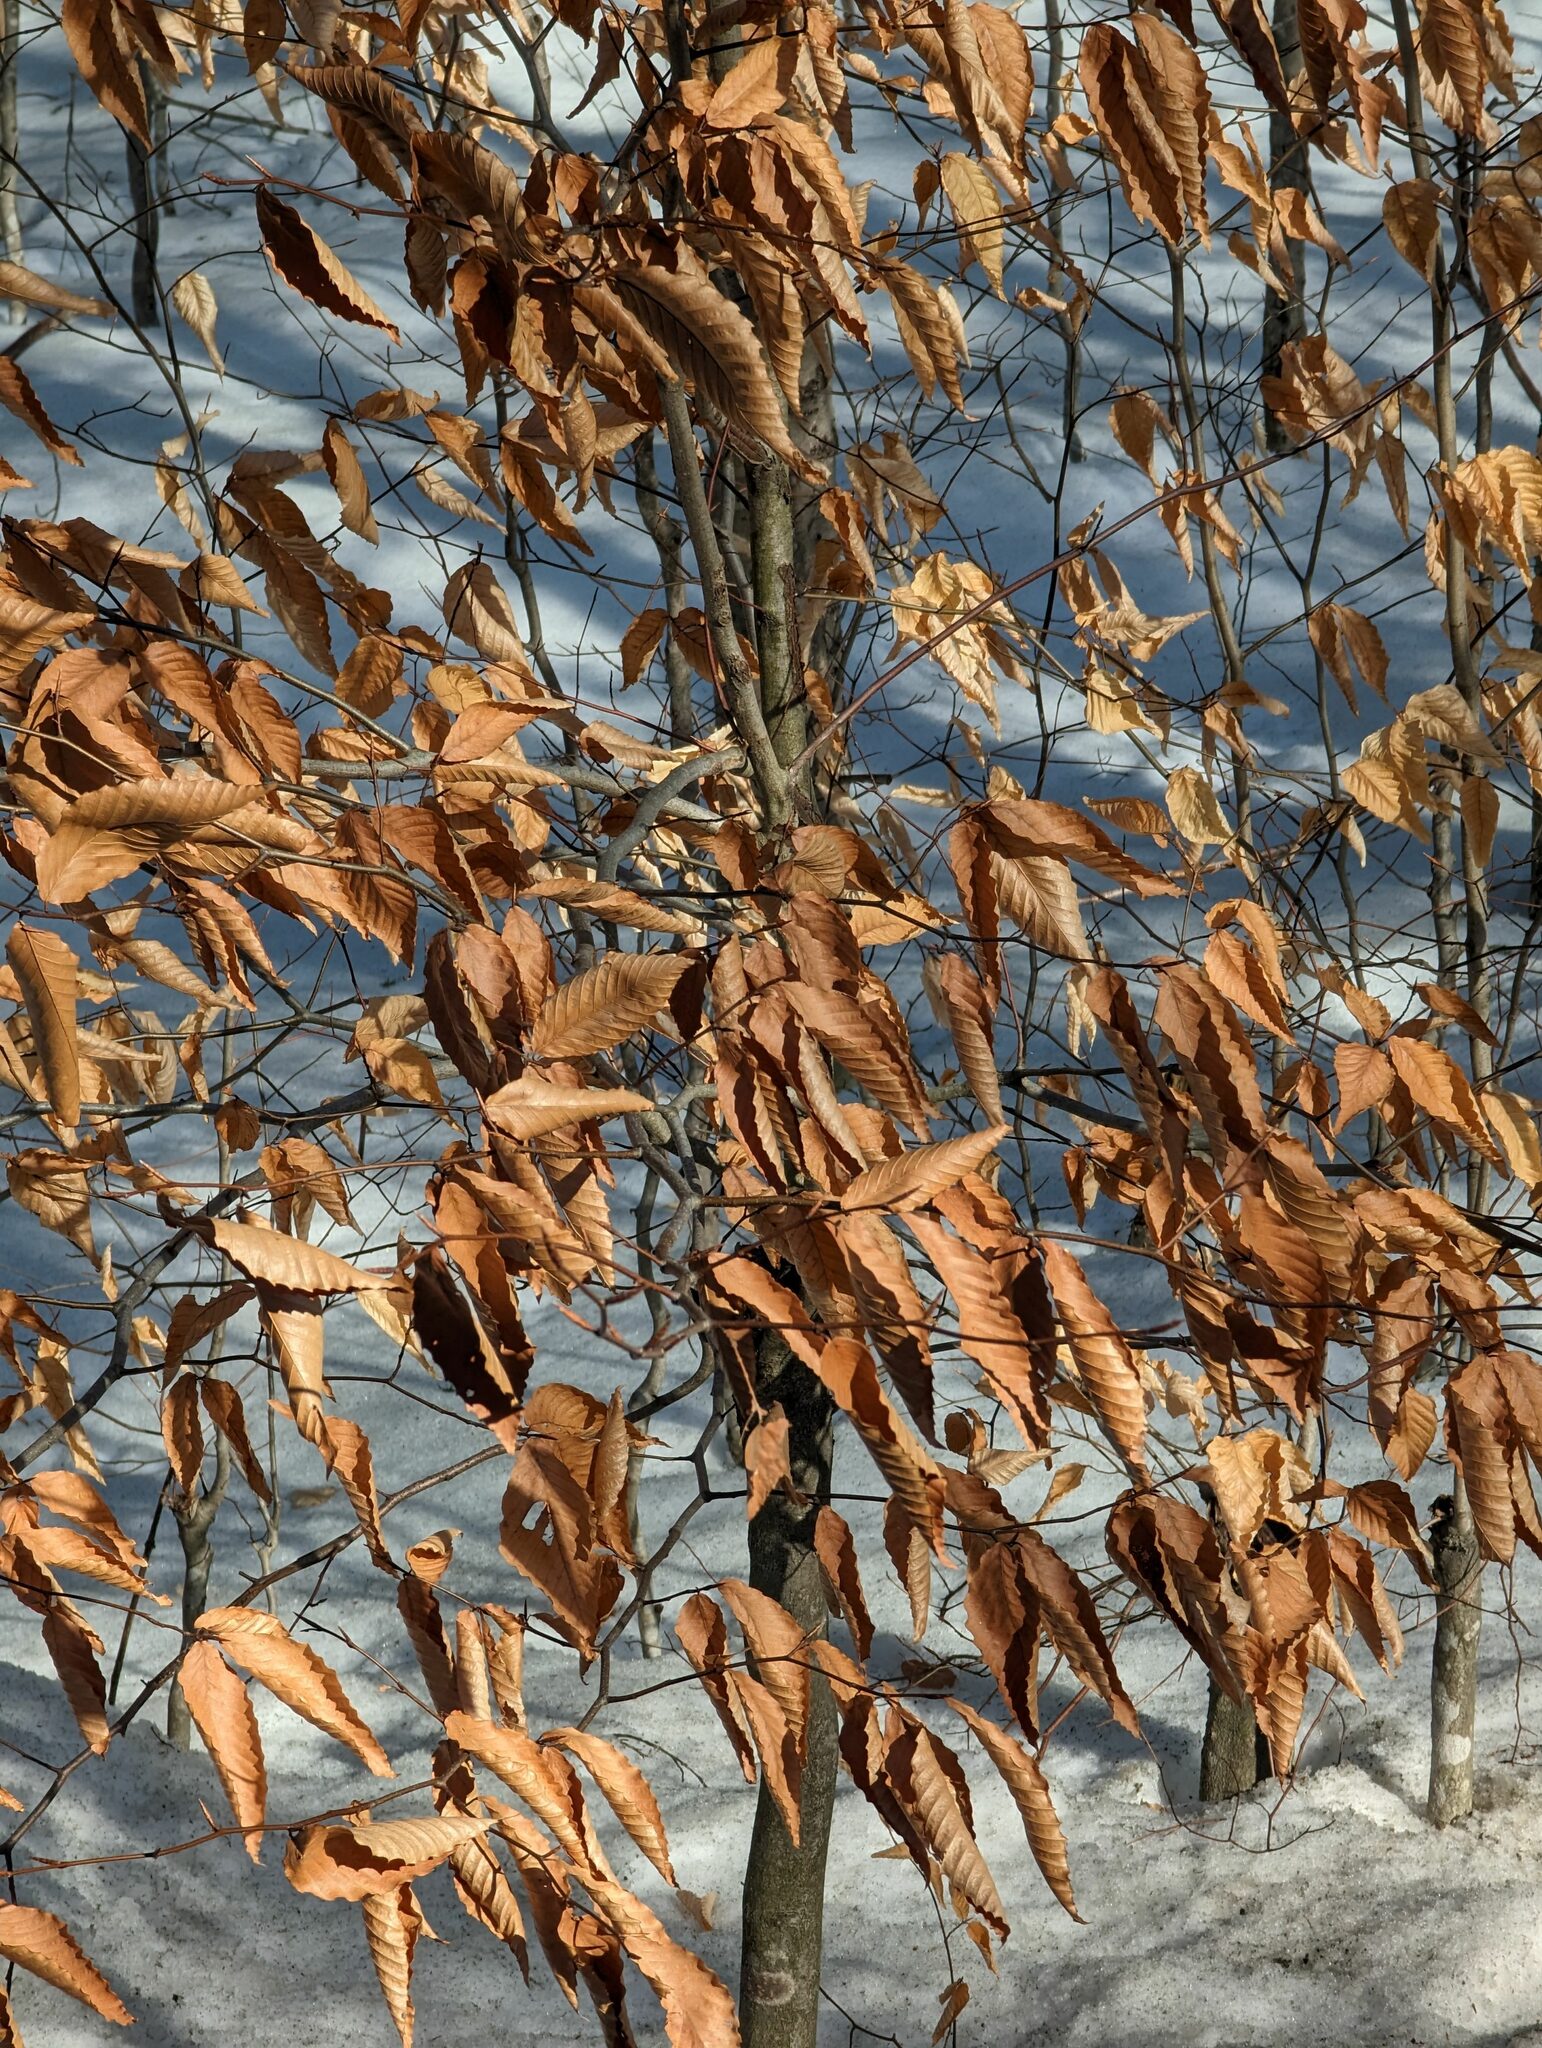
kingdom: Plantae
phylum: Tracheophyta
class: Magnoliopsida
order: Fagales
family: Fagaceae
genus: Fagus
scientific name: Fagus grandifolia
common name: American beech
